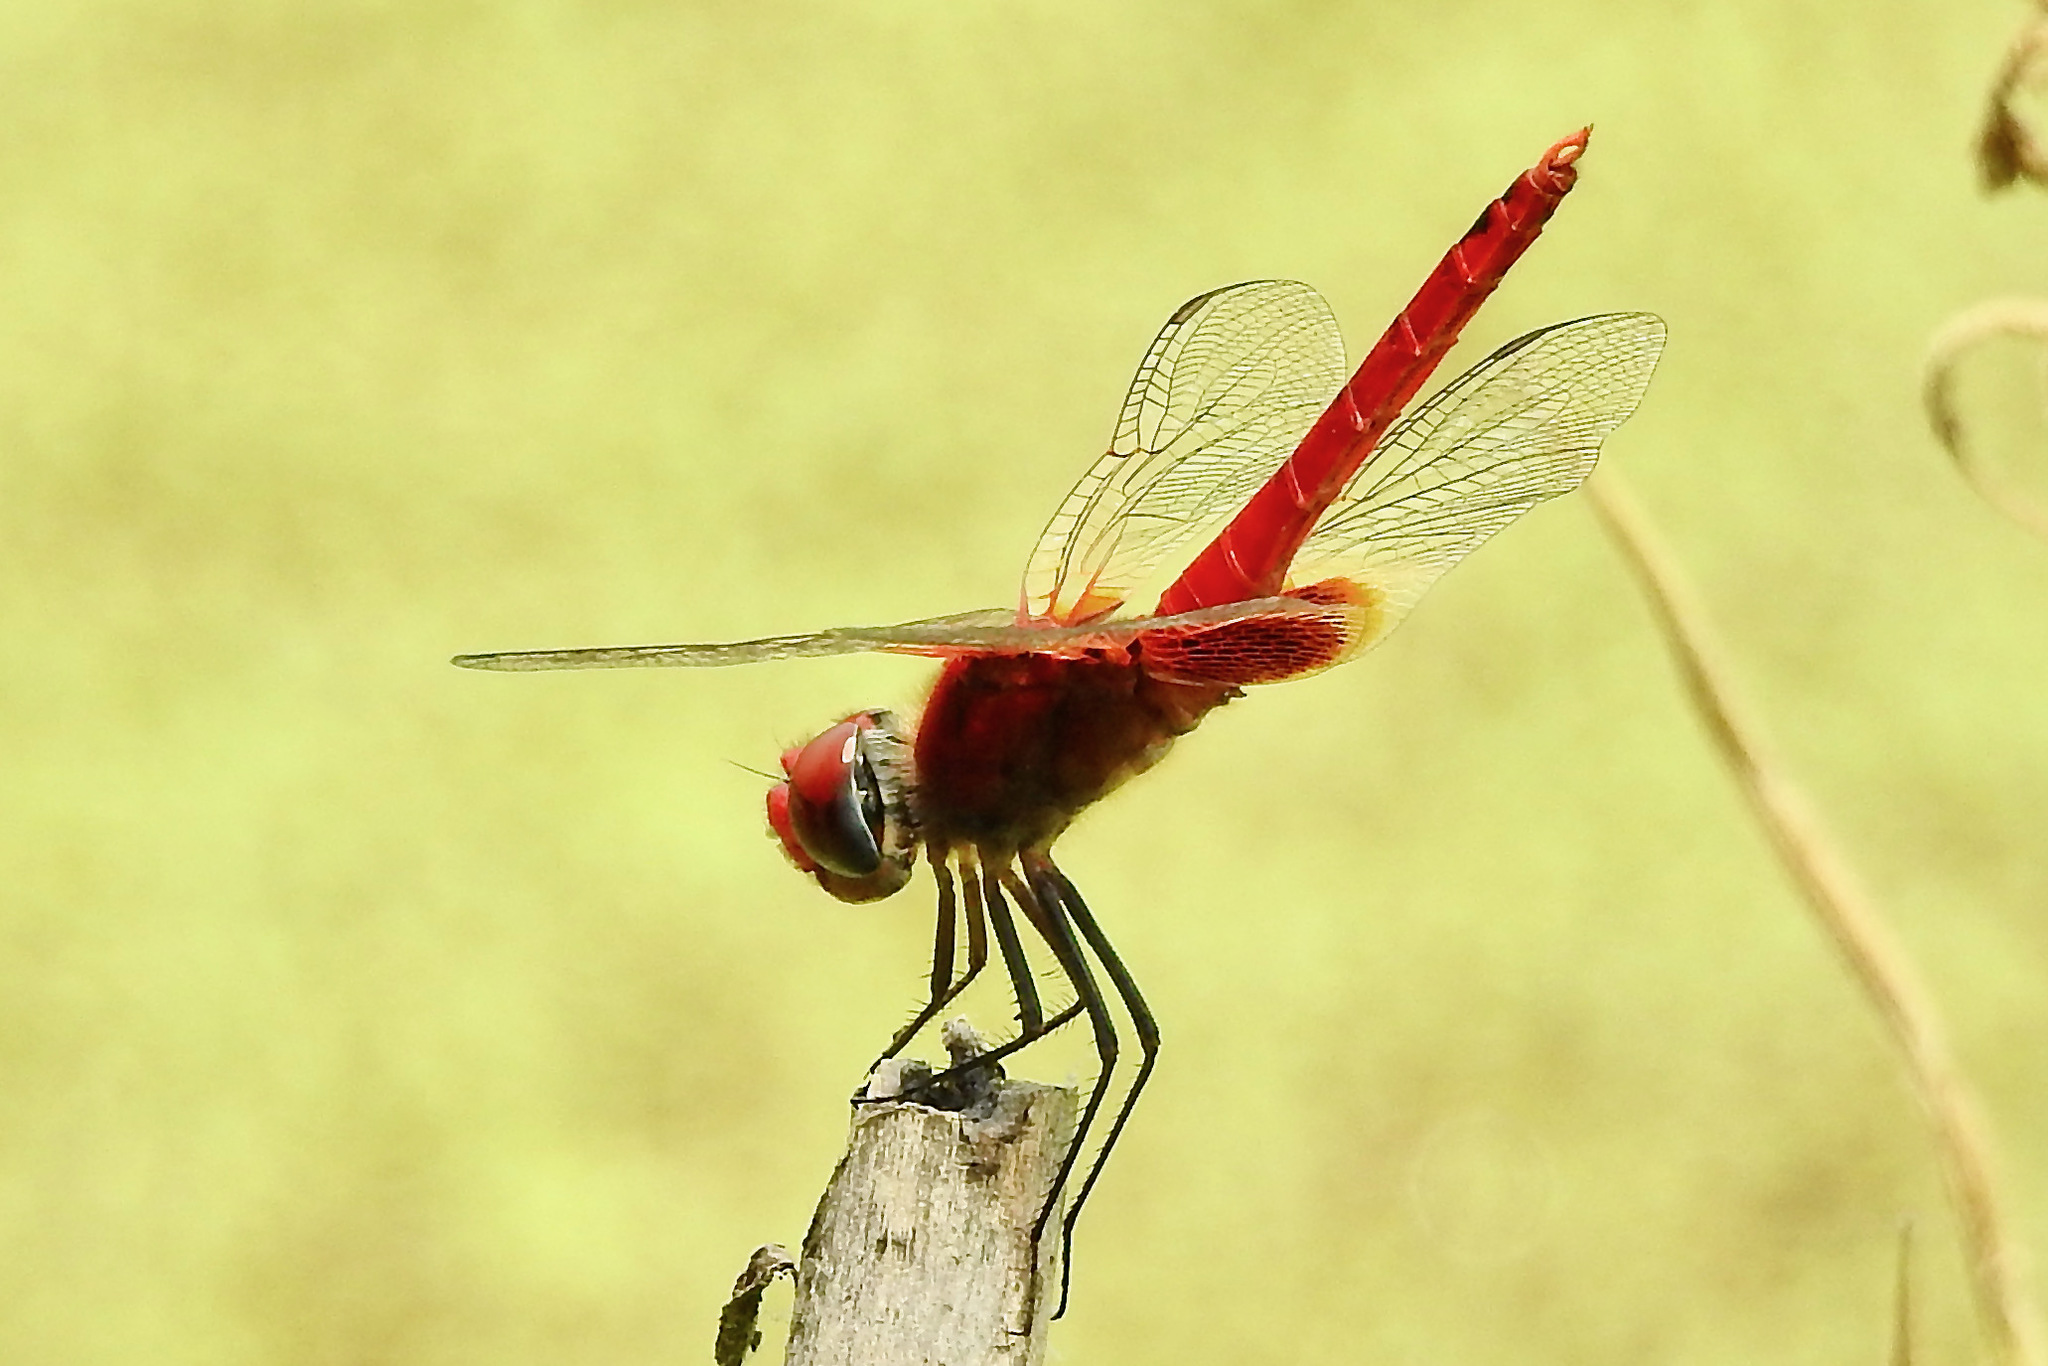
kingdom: Animalia
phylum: Arthropoda
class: Insecta
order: Odonata
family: Libellulidae
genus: Urothemis
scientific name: Urothemis signata
